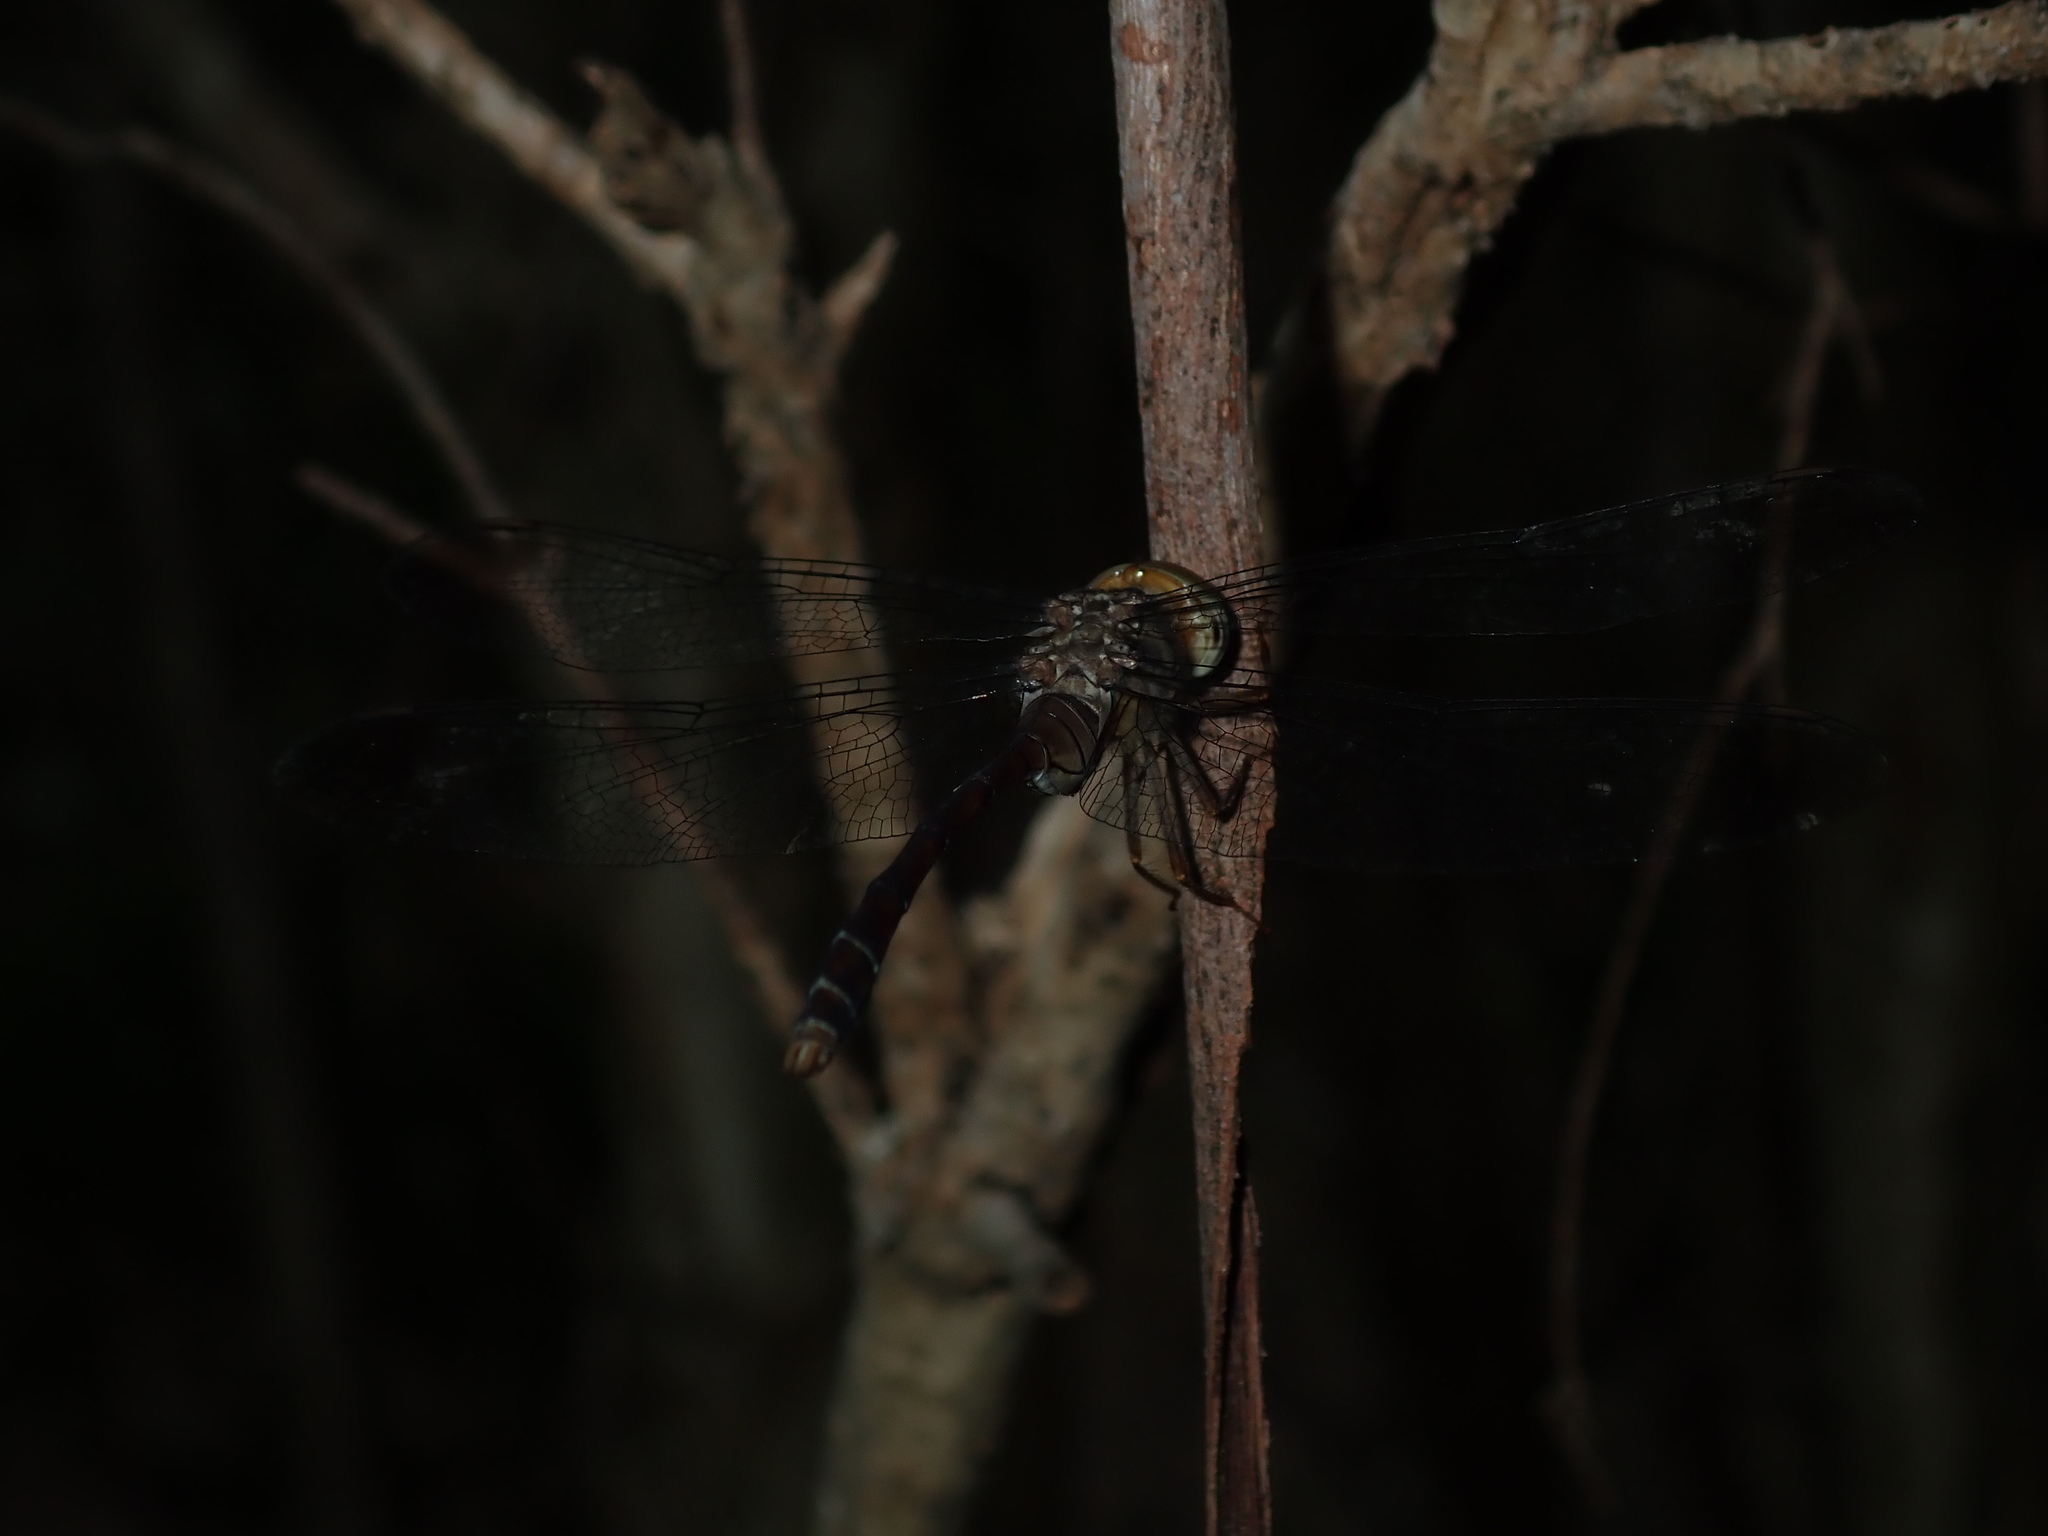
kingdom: Animalia
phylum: Arthropoda
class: Insecta
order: Odonata
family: Libellulidae
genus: Zyxomma
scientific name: Zyxomma elgneri
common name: Short-tailed duskdarter
